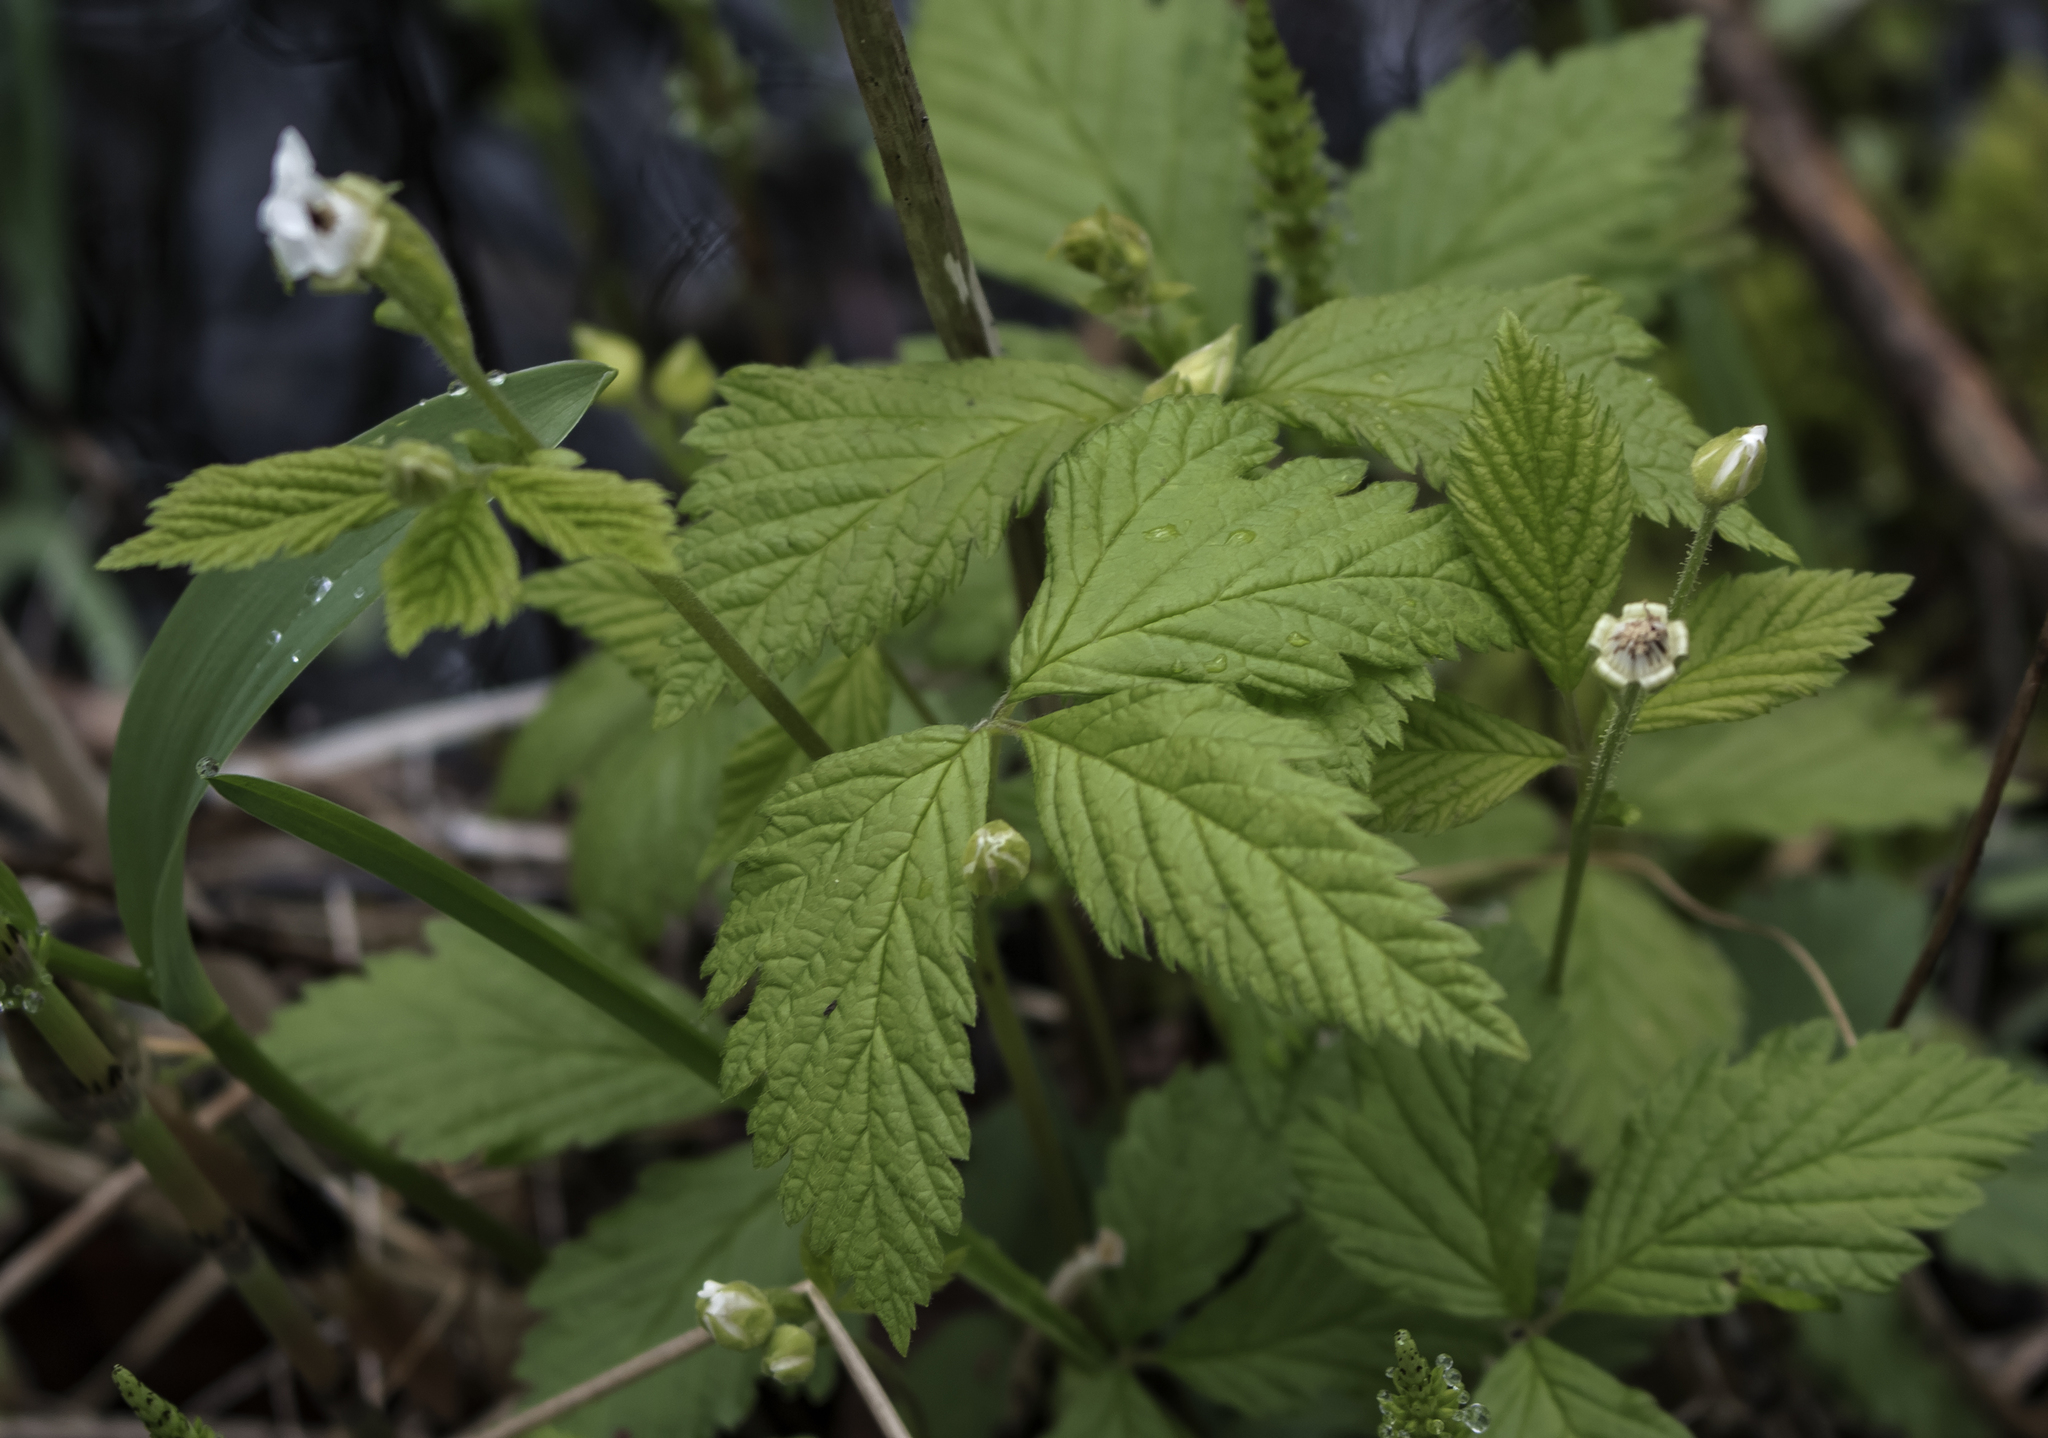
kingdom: Plantae
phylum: Tracheophyta
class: Magnoliopsida
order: Rosales
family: Rosaceae
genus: Rubus
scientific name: Rubus pubescens
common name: Dwarf raspberry
